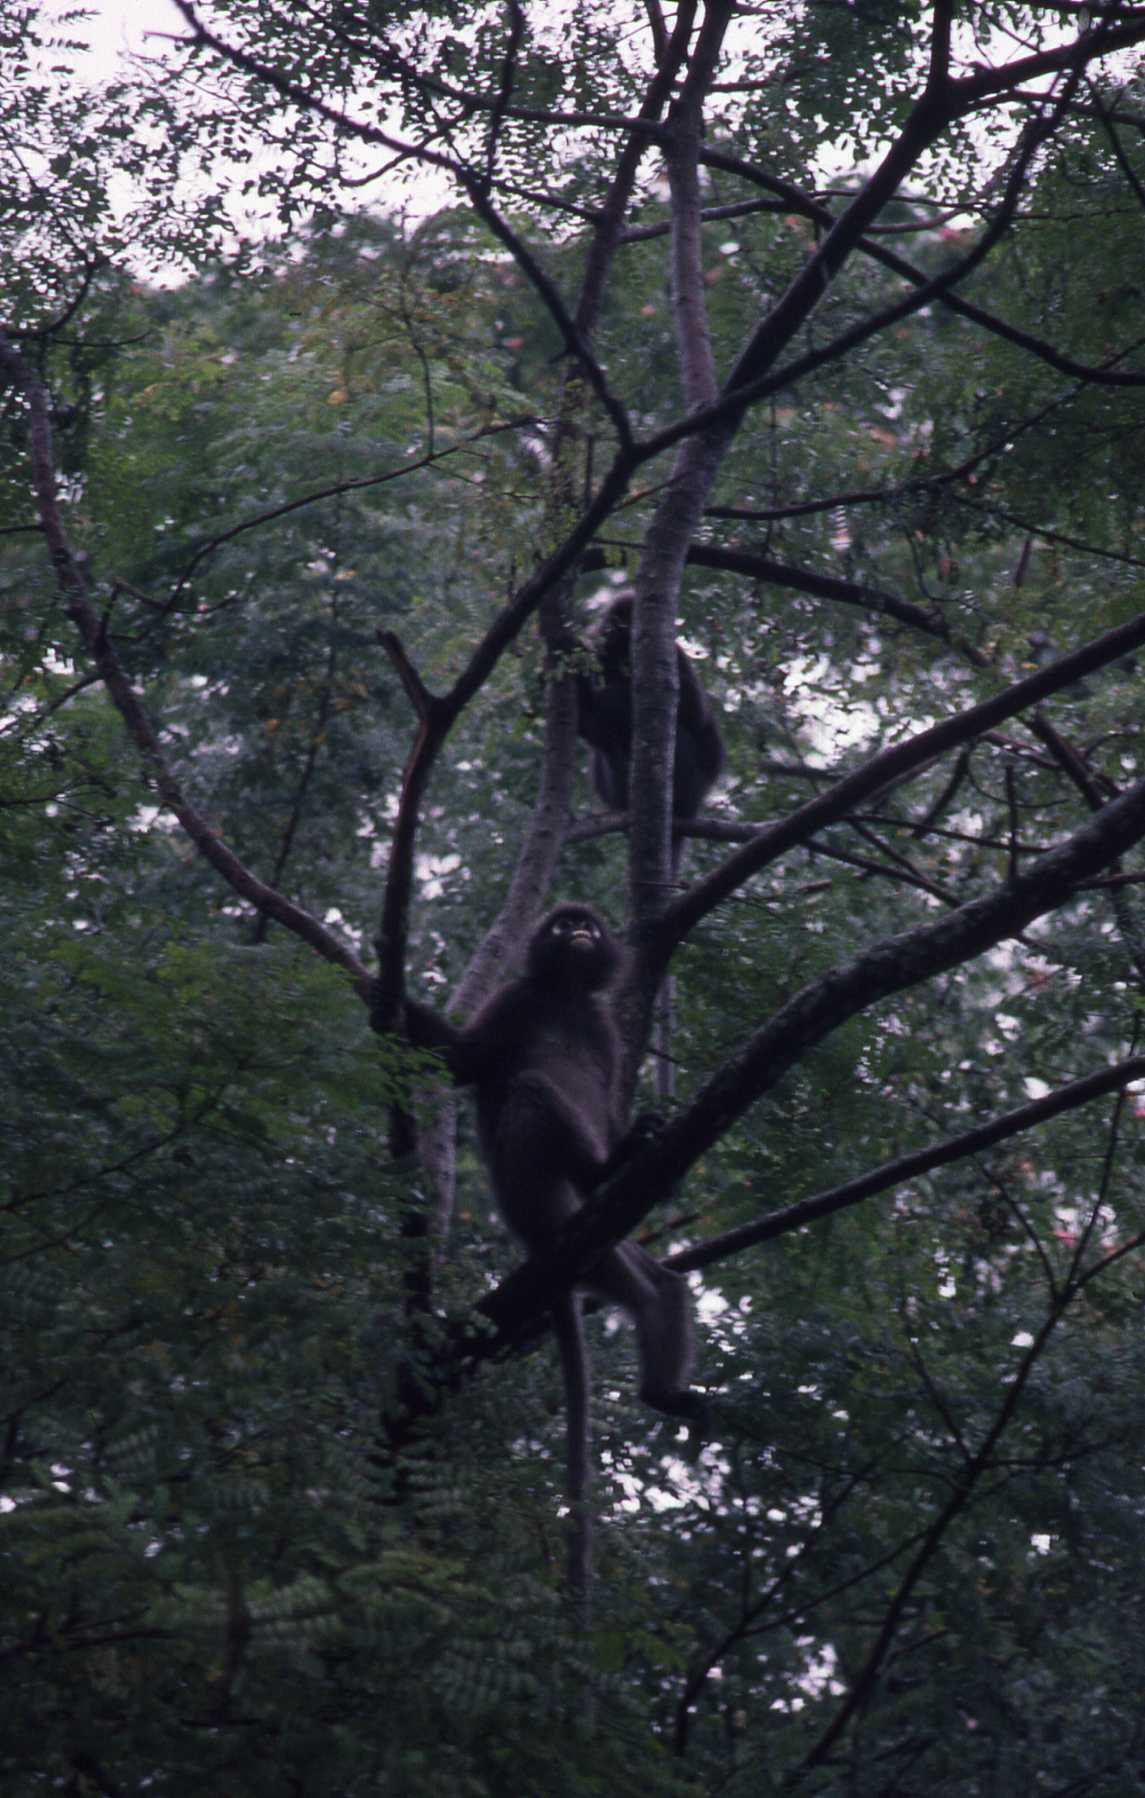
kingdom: Animalia
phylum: Chordata
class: Mammalia
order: Primates
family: Cercopithecidae
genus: Trachypithecus
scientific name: Trachypithecus obscurus
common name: Dusky leaf-monkey
